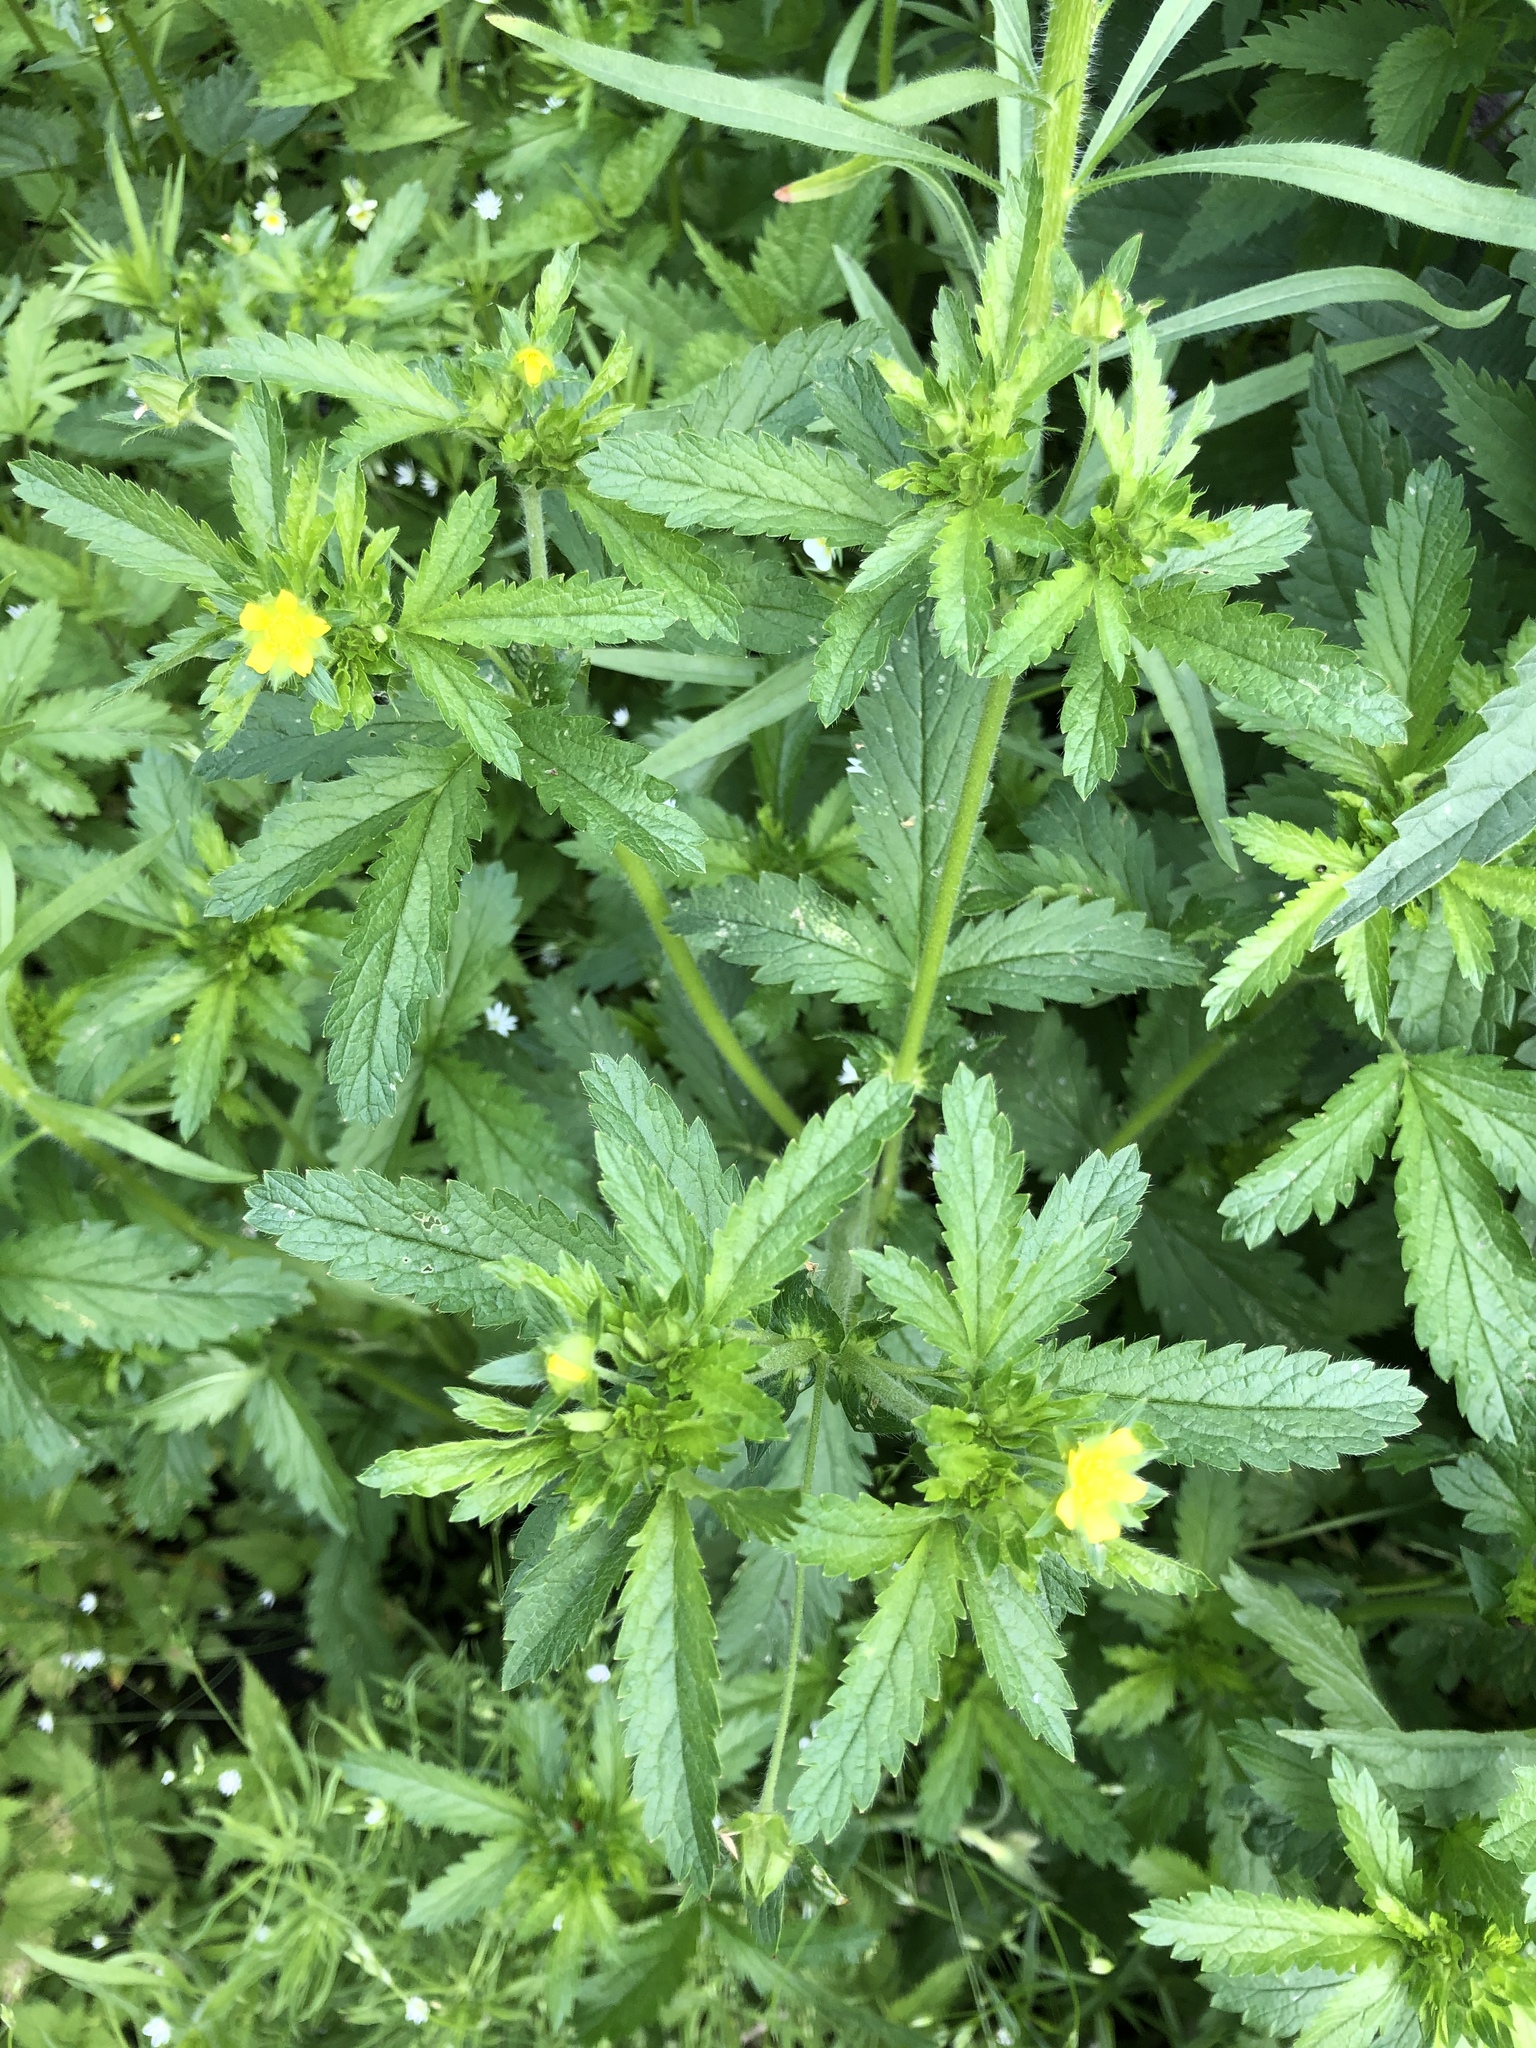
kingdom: Plantae
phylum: Tracheophyta
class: Magnoliopsida
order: Rosales
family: Rosaceae
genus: Potentilla
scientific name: Potentilla norvegica
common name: Ternate-leaved cinquefoil
